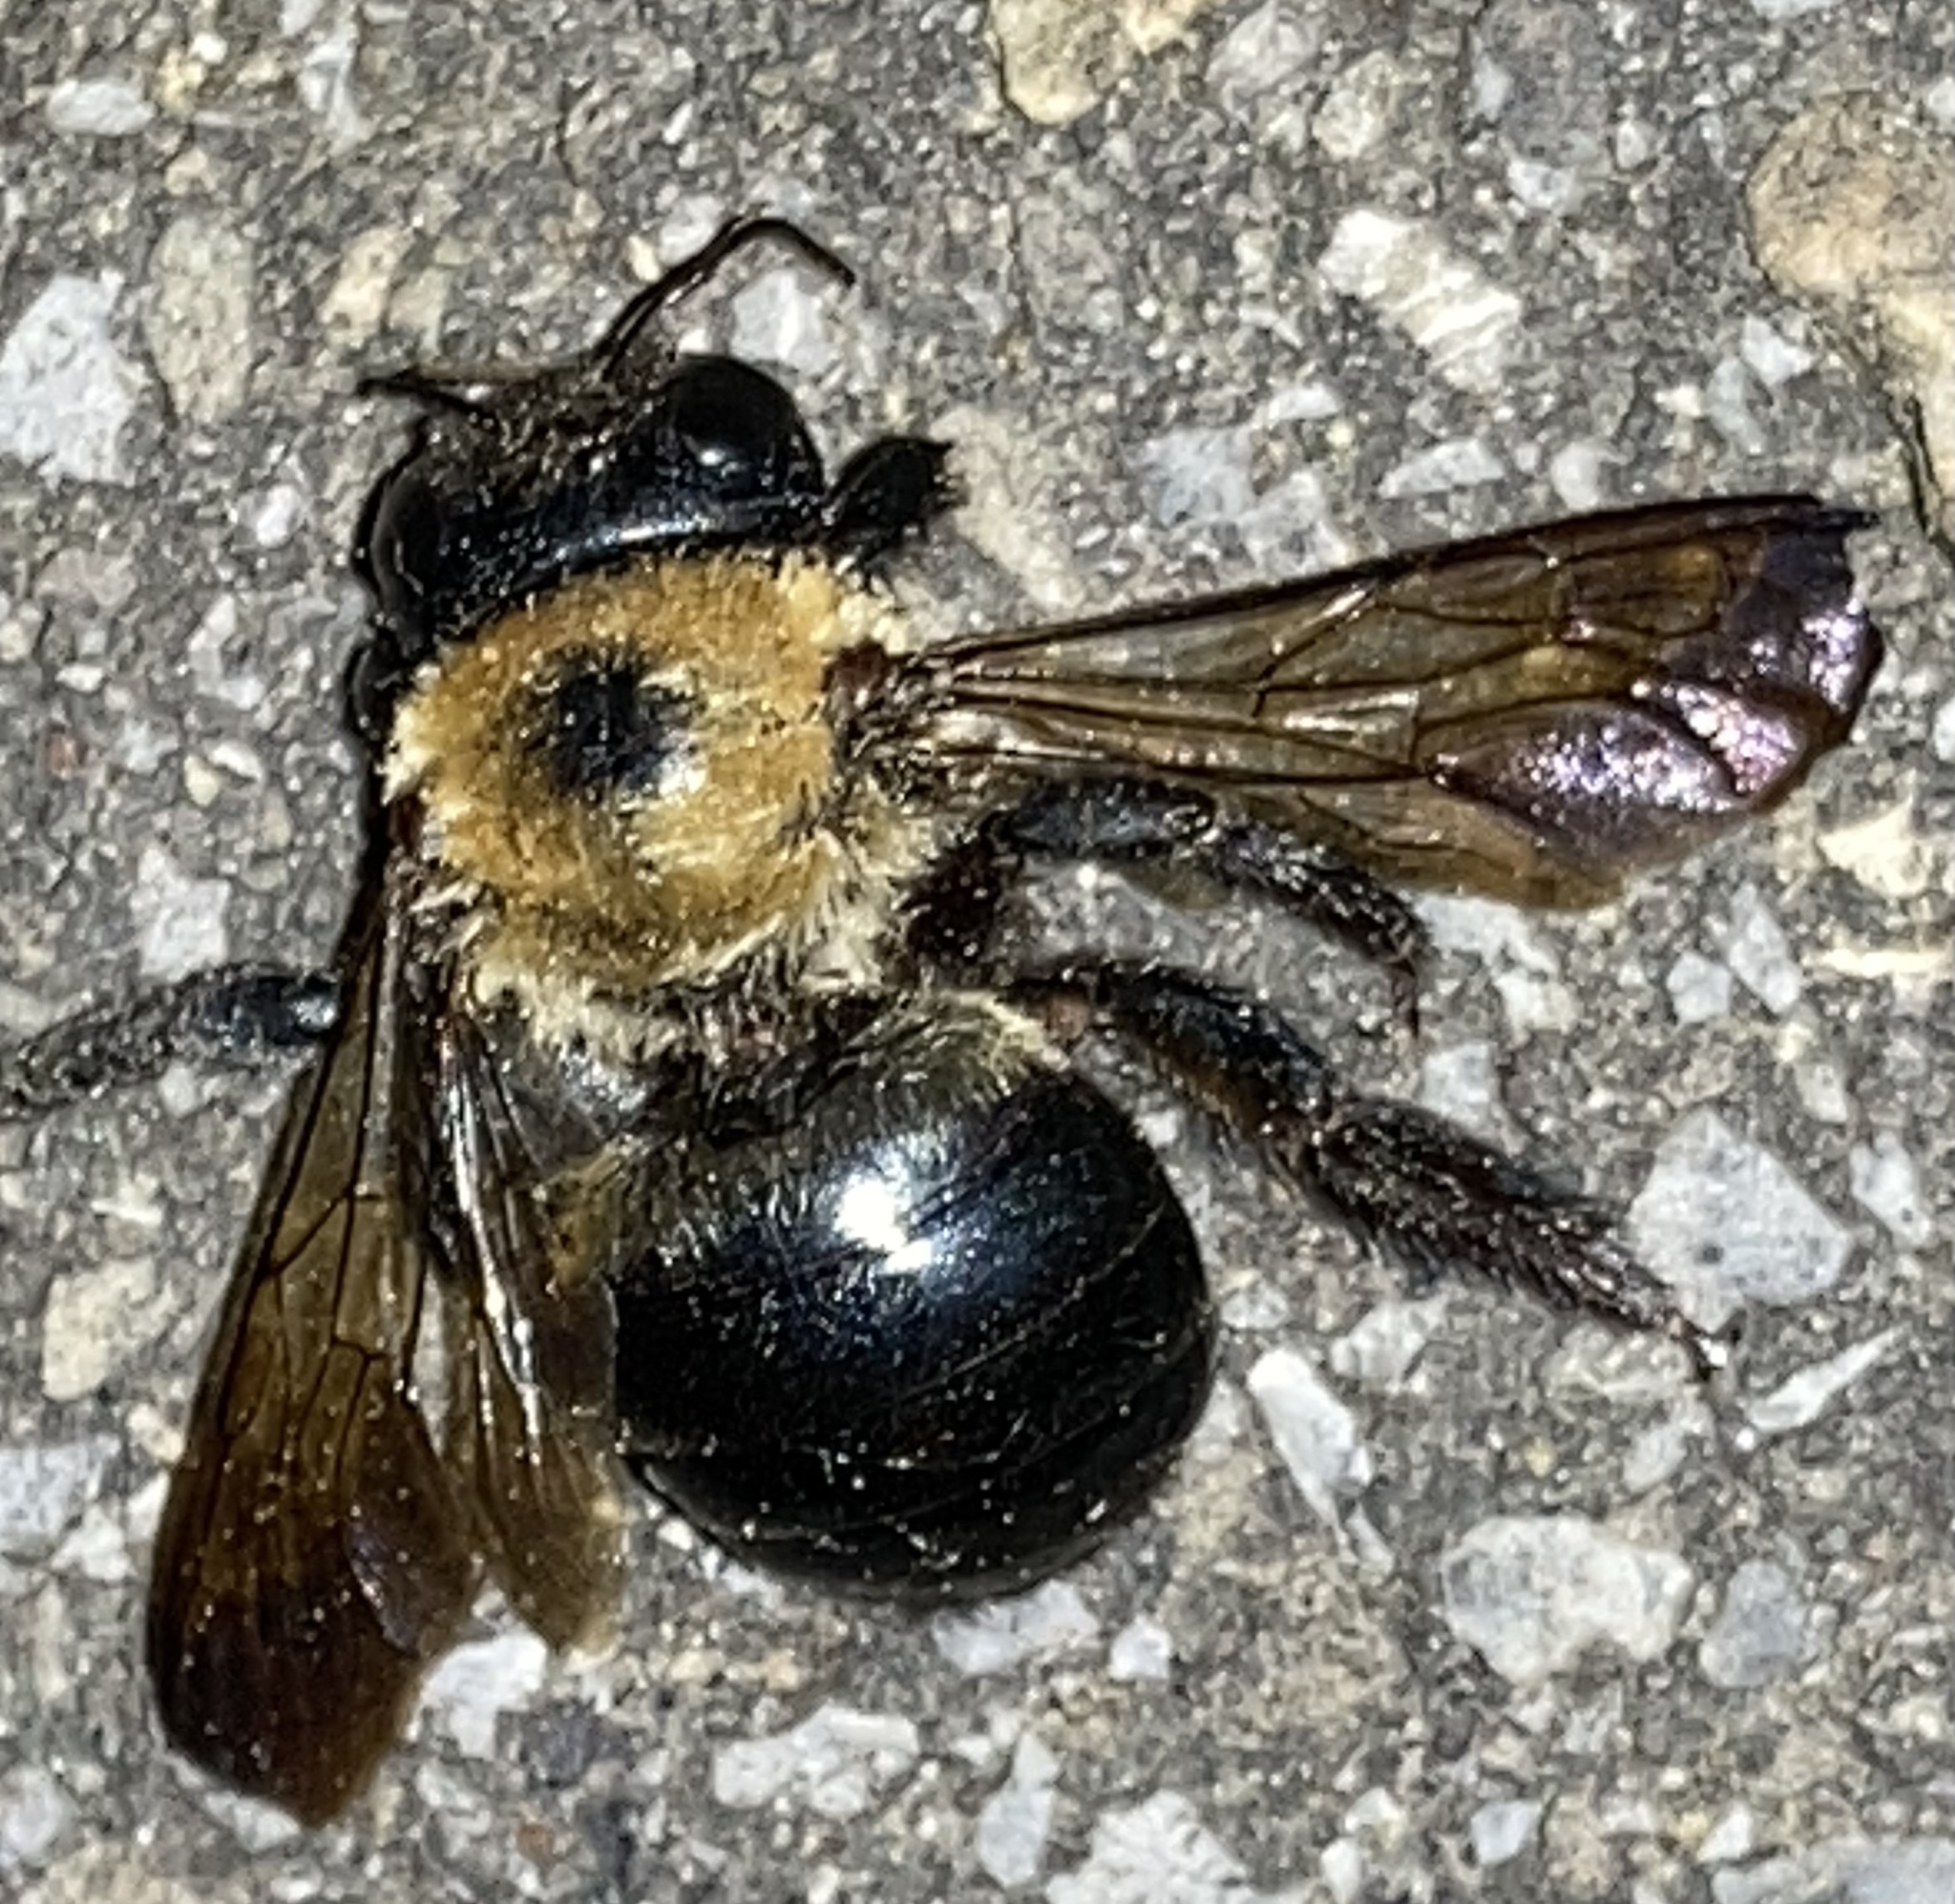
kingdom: Animalia
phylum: Arthropoda
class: Insecta
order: Hymenoptera
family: Apidae
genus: Xylocopa
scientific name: Xylocopa virginica
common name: Carpenter bee
